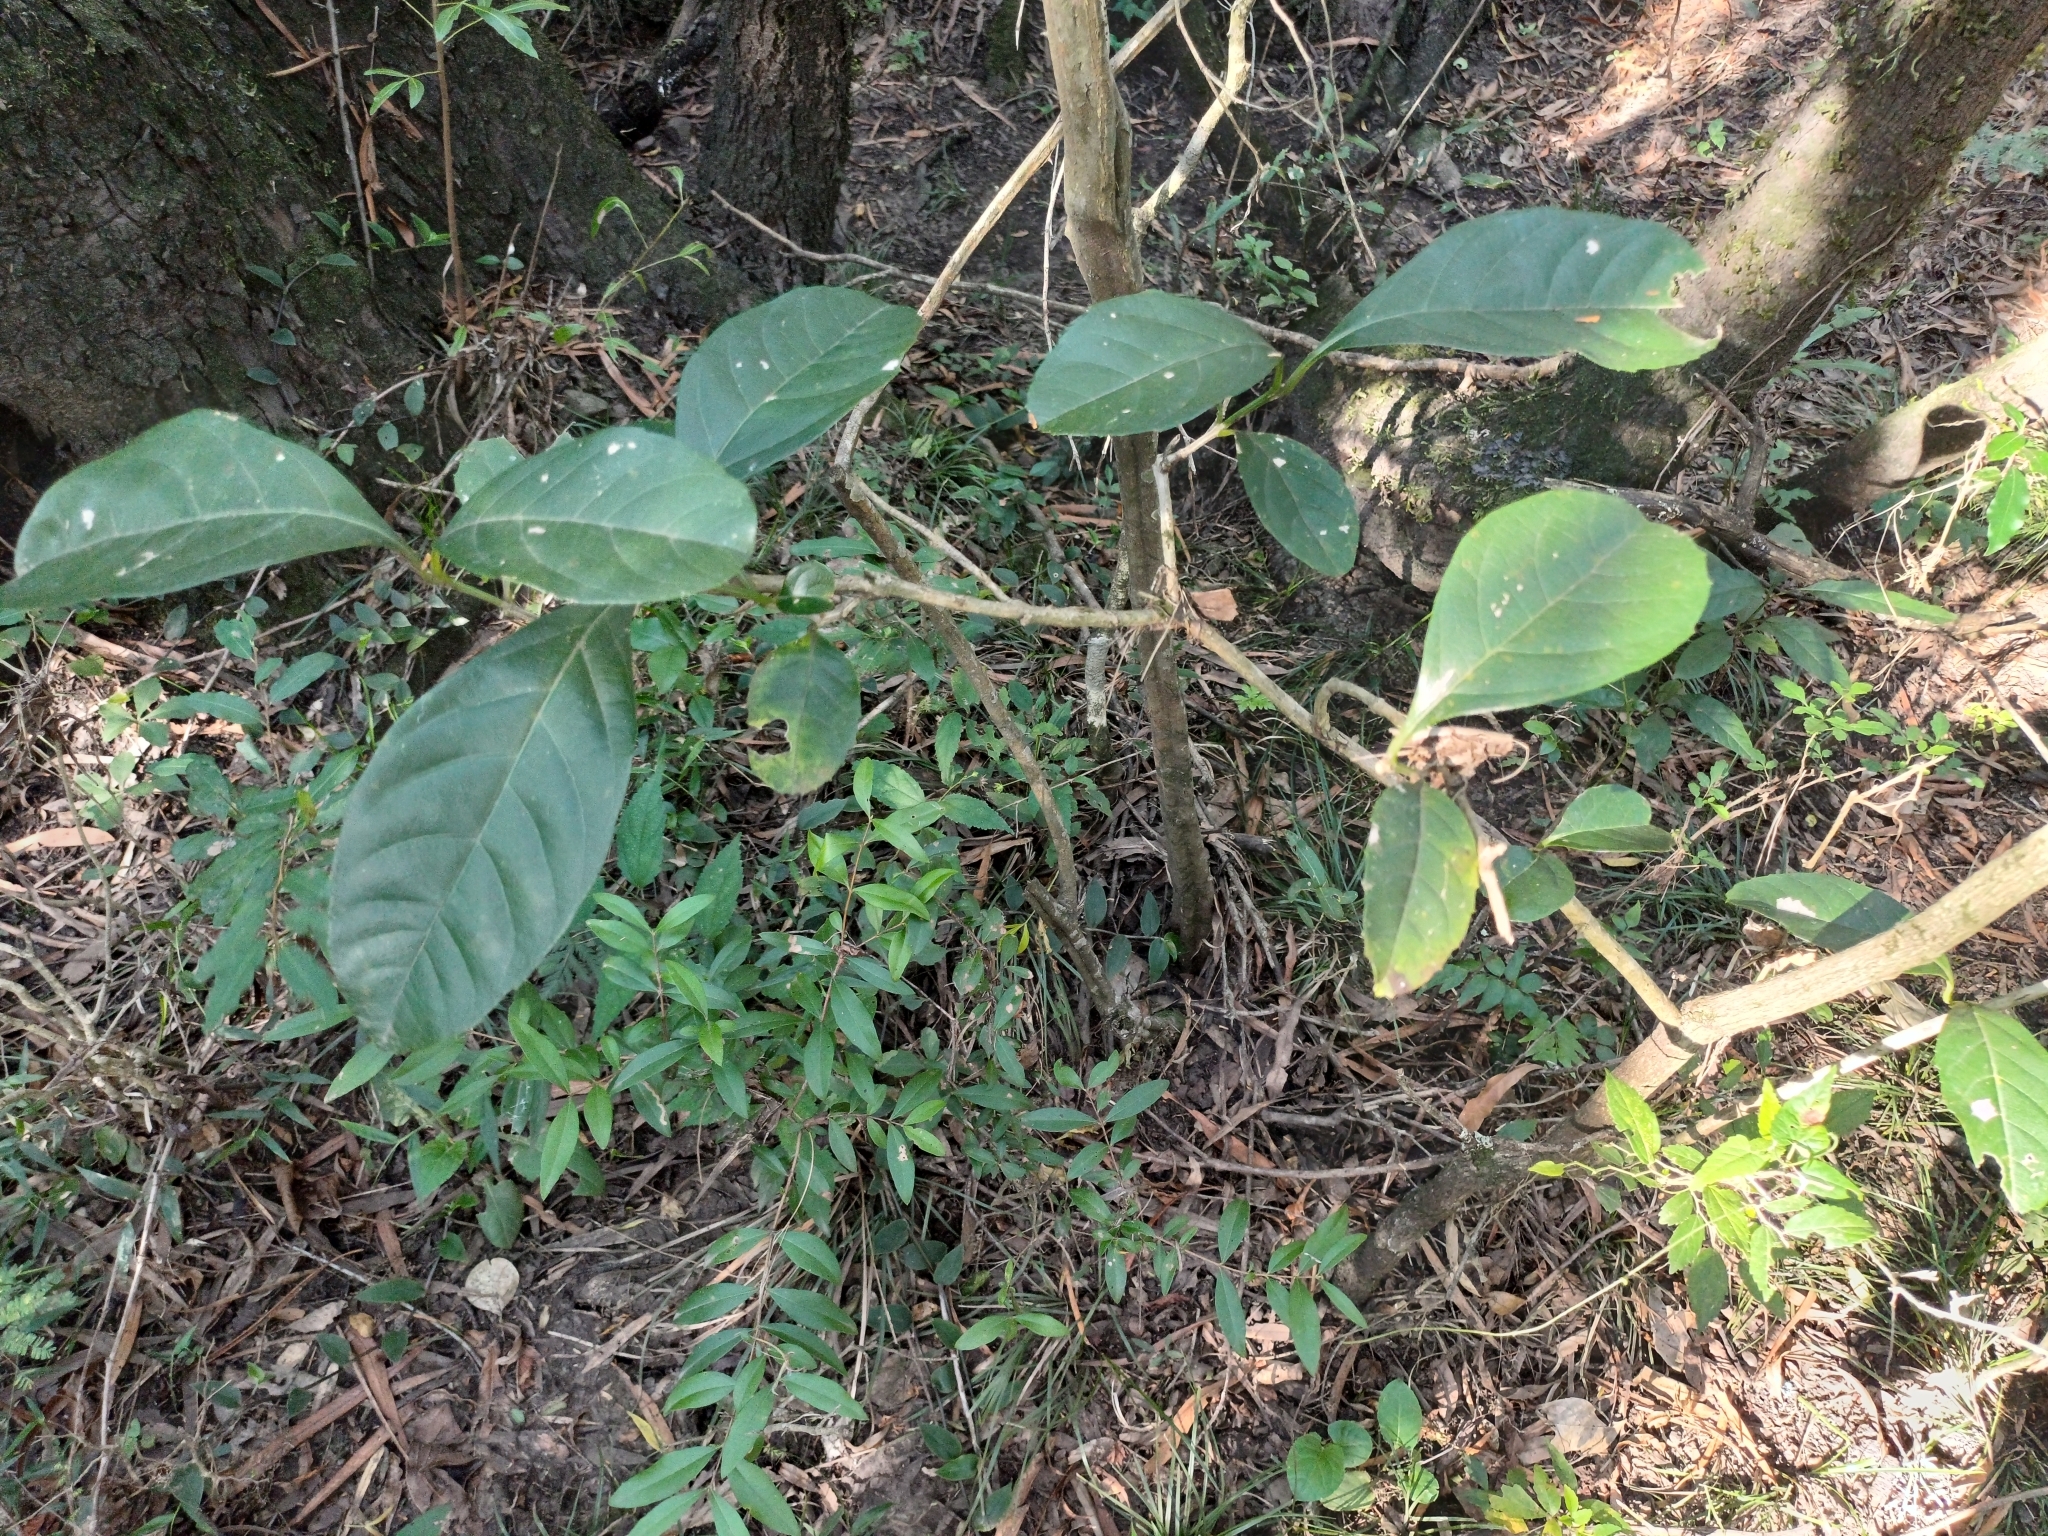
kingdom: Plantae
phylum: Tracheophyta
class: Magnoliopsida
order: Lamiales
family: Verbenaceae
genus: Citharexylum
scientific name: Citharexylum montevidense
